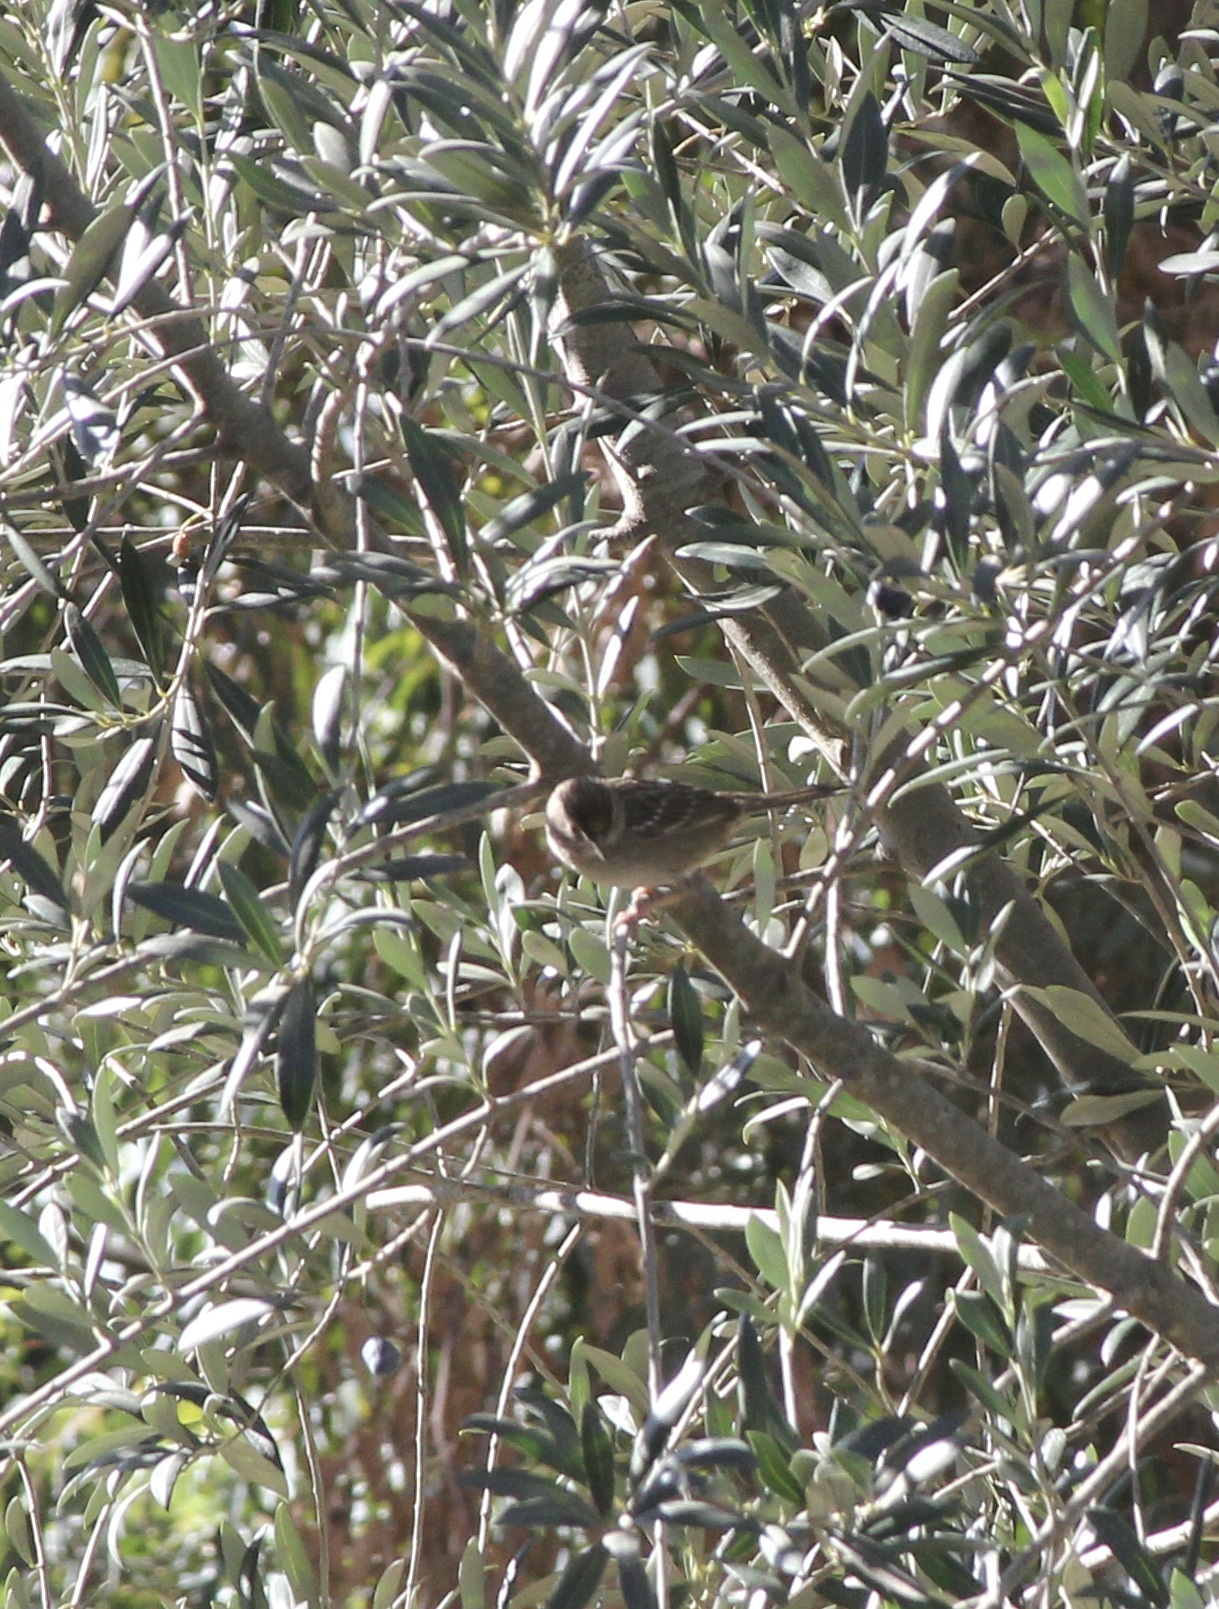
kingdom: Animalia
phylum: Chordata
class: Aves
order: Passeriformes
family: Passerellidae
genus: Zonotrichia
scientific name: Zonotrichia atricapilla
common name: Golden-crowned sparrow
